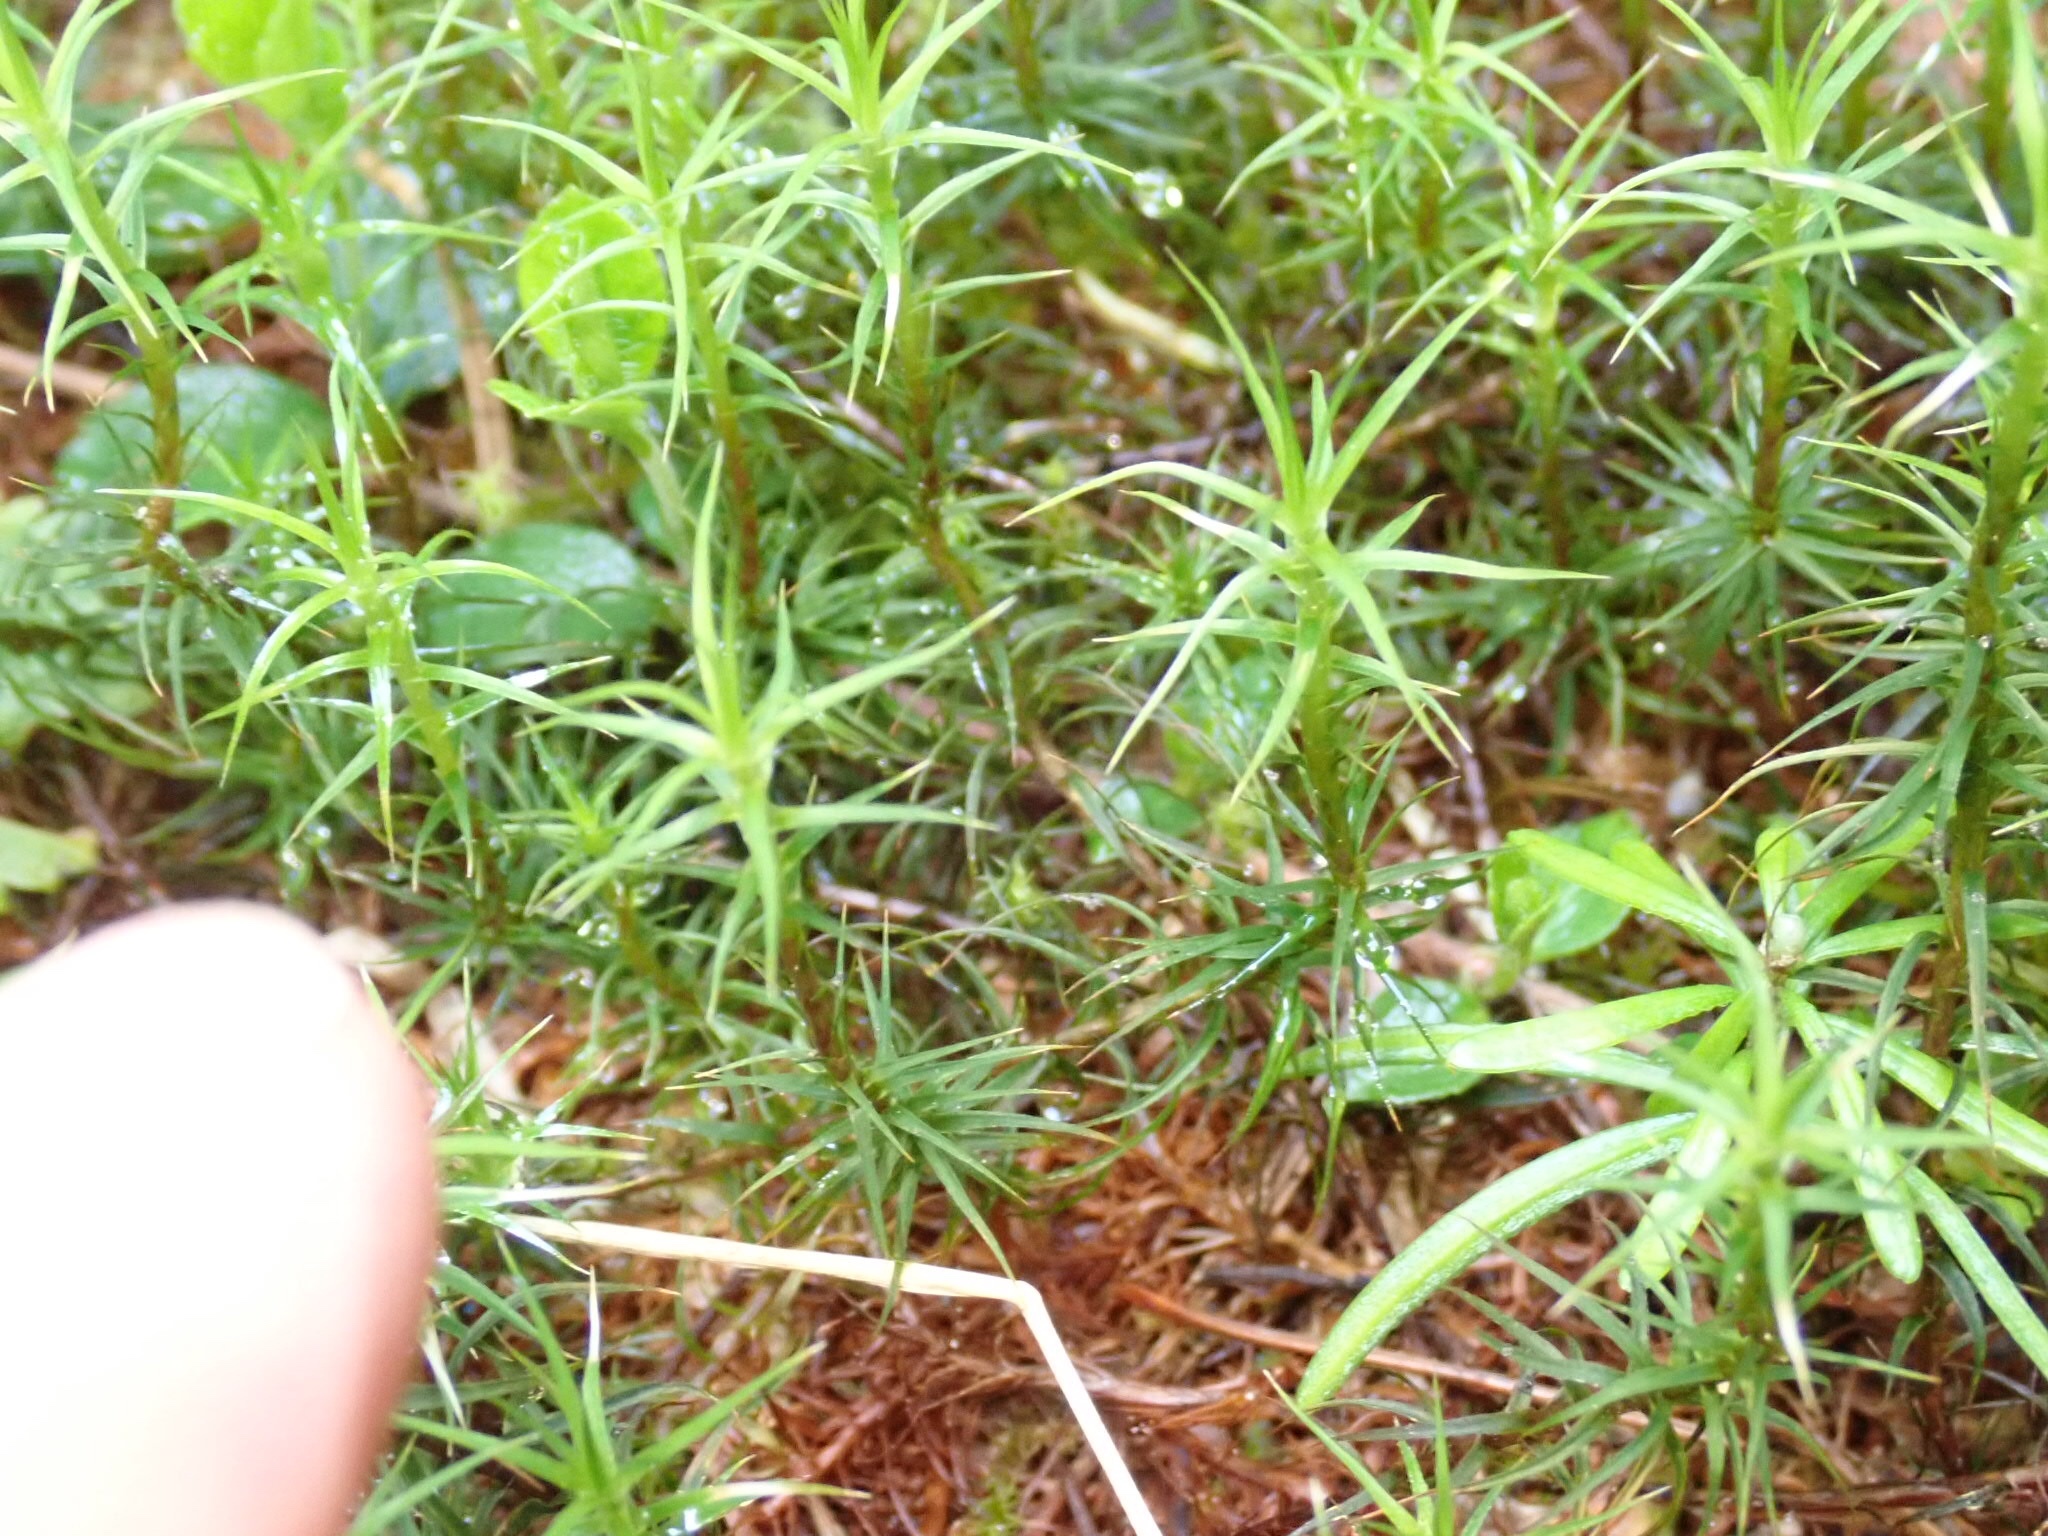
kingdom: Plantae
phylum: Bryophyta
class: Polytrichopsida
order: Polytrichales
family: Polytrichaceae
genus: Polytrichum
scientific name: Polytrichum juniperinum
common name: Juniper haircap moss
